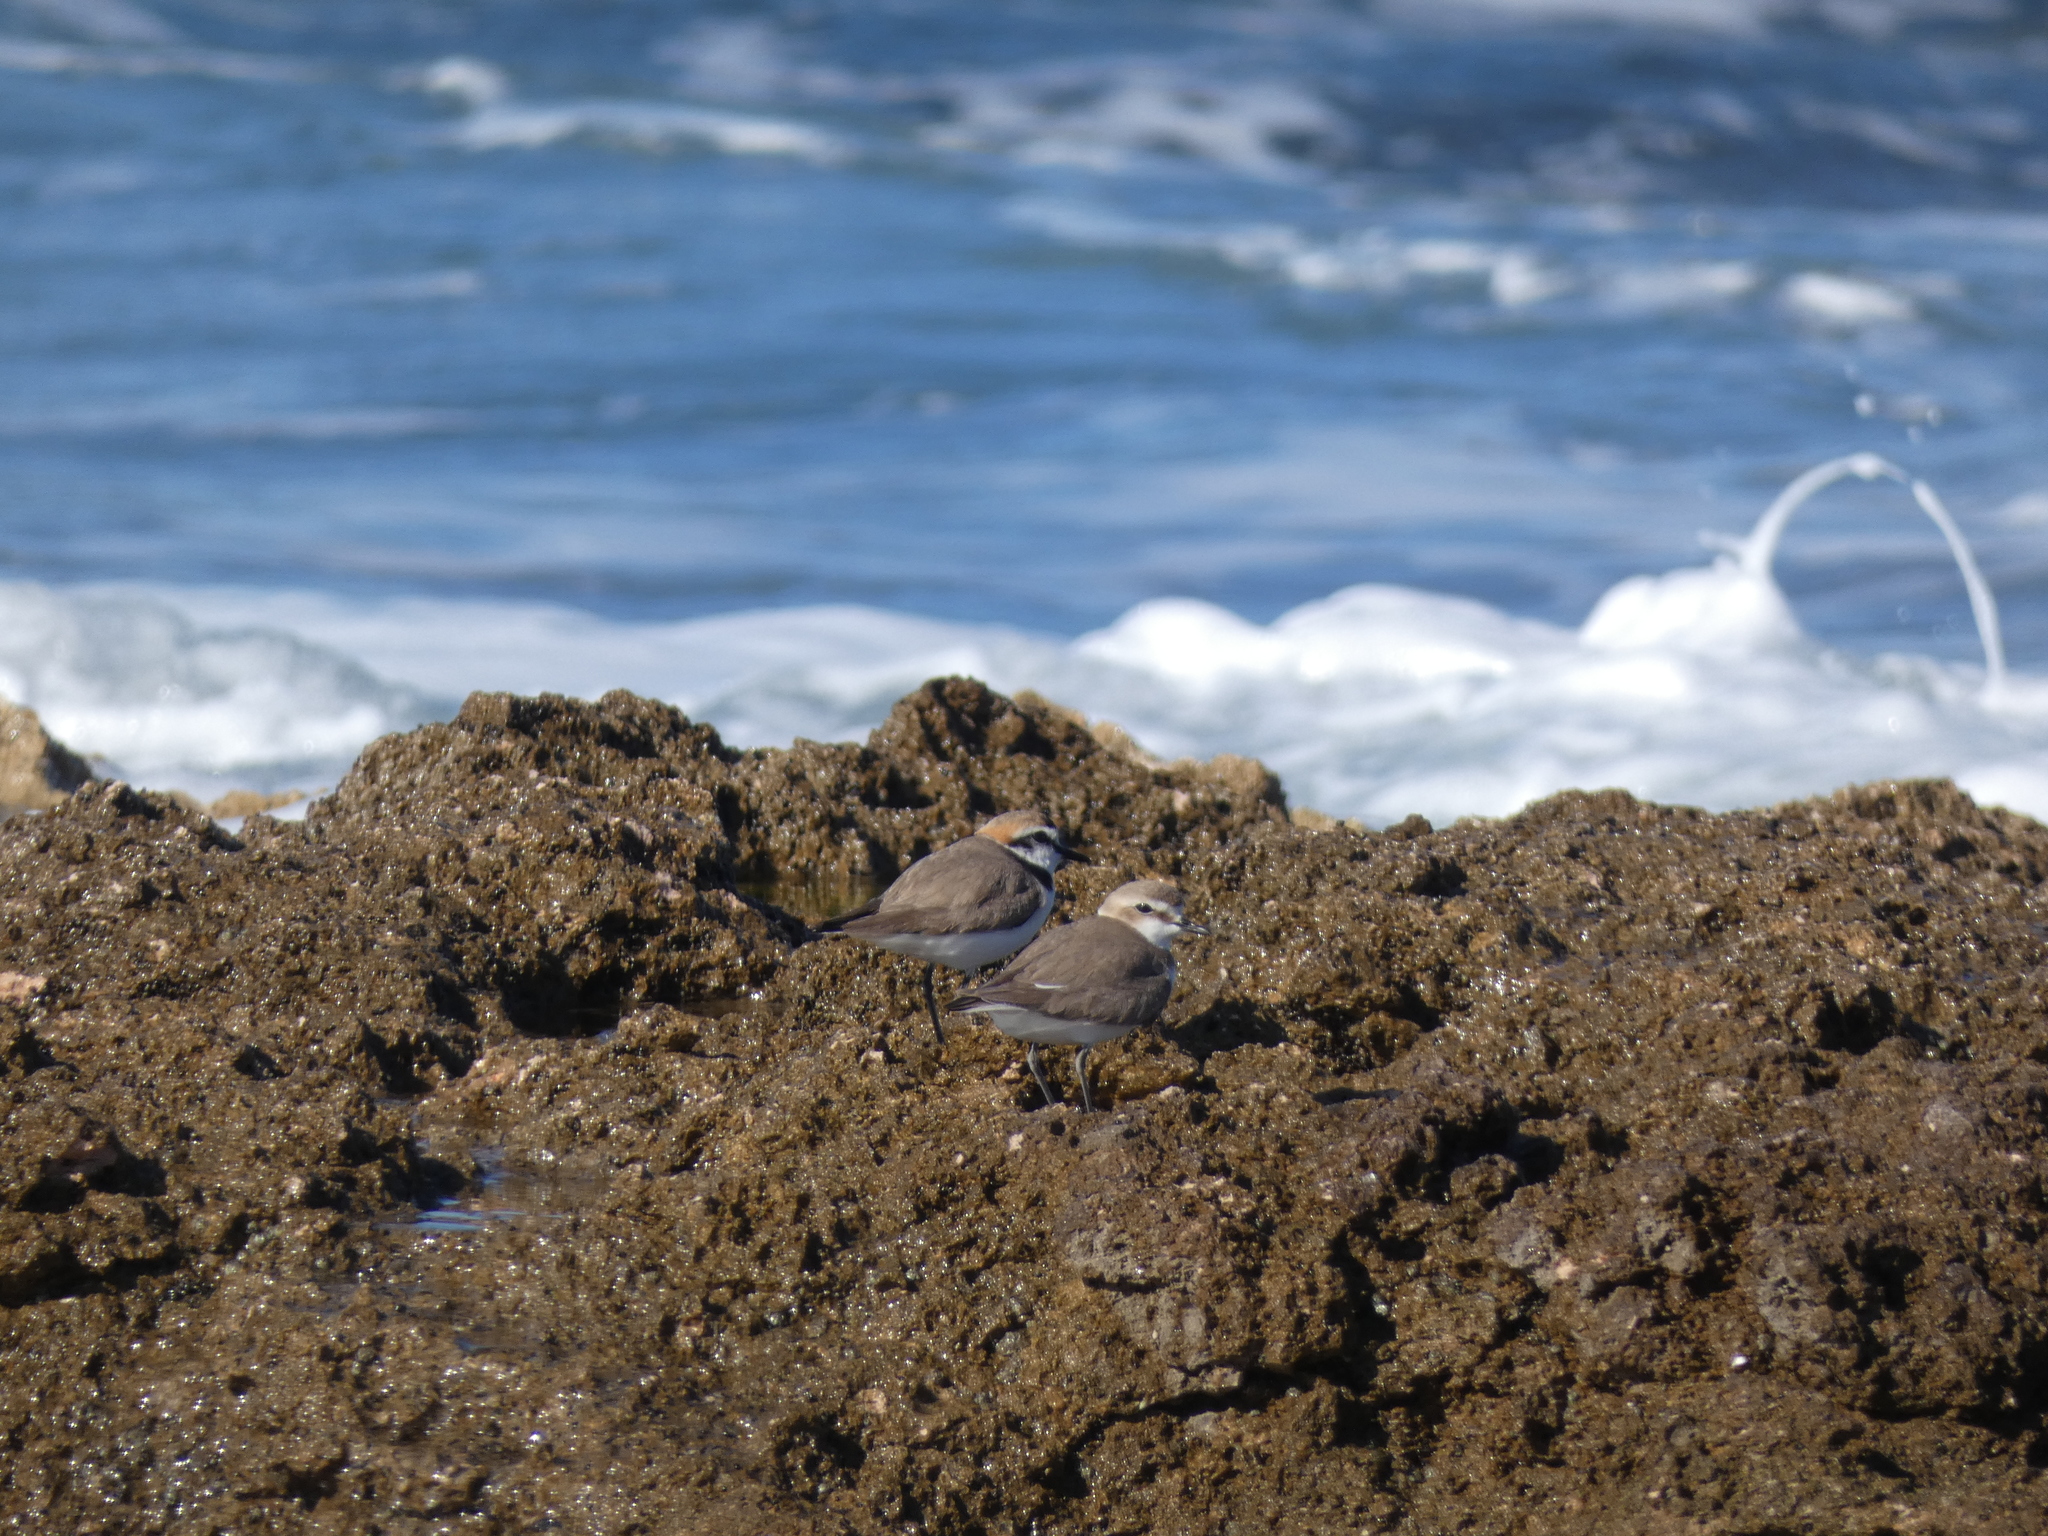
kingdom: Animalia
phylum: Chordata
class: Aves
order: Charadriiformes
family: Charadriidae
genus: Charadrius
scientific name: Charadrius alexandrinus
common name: Kentish plover
